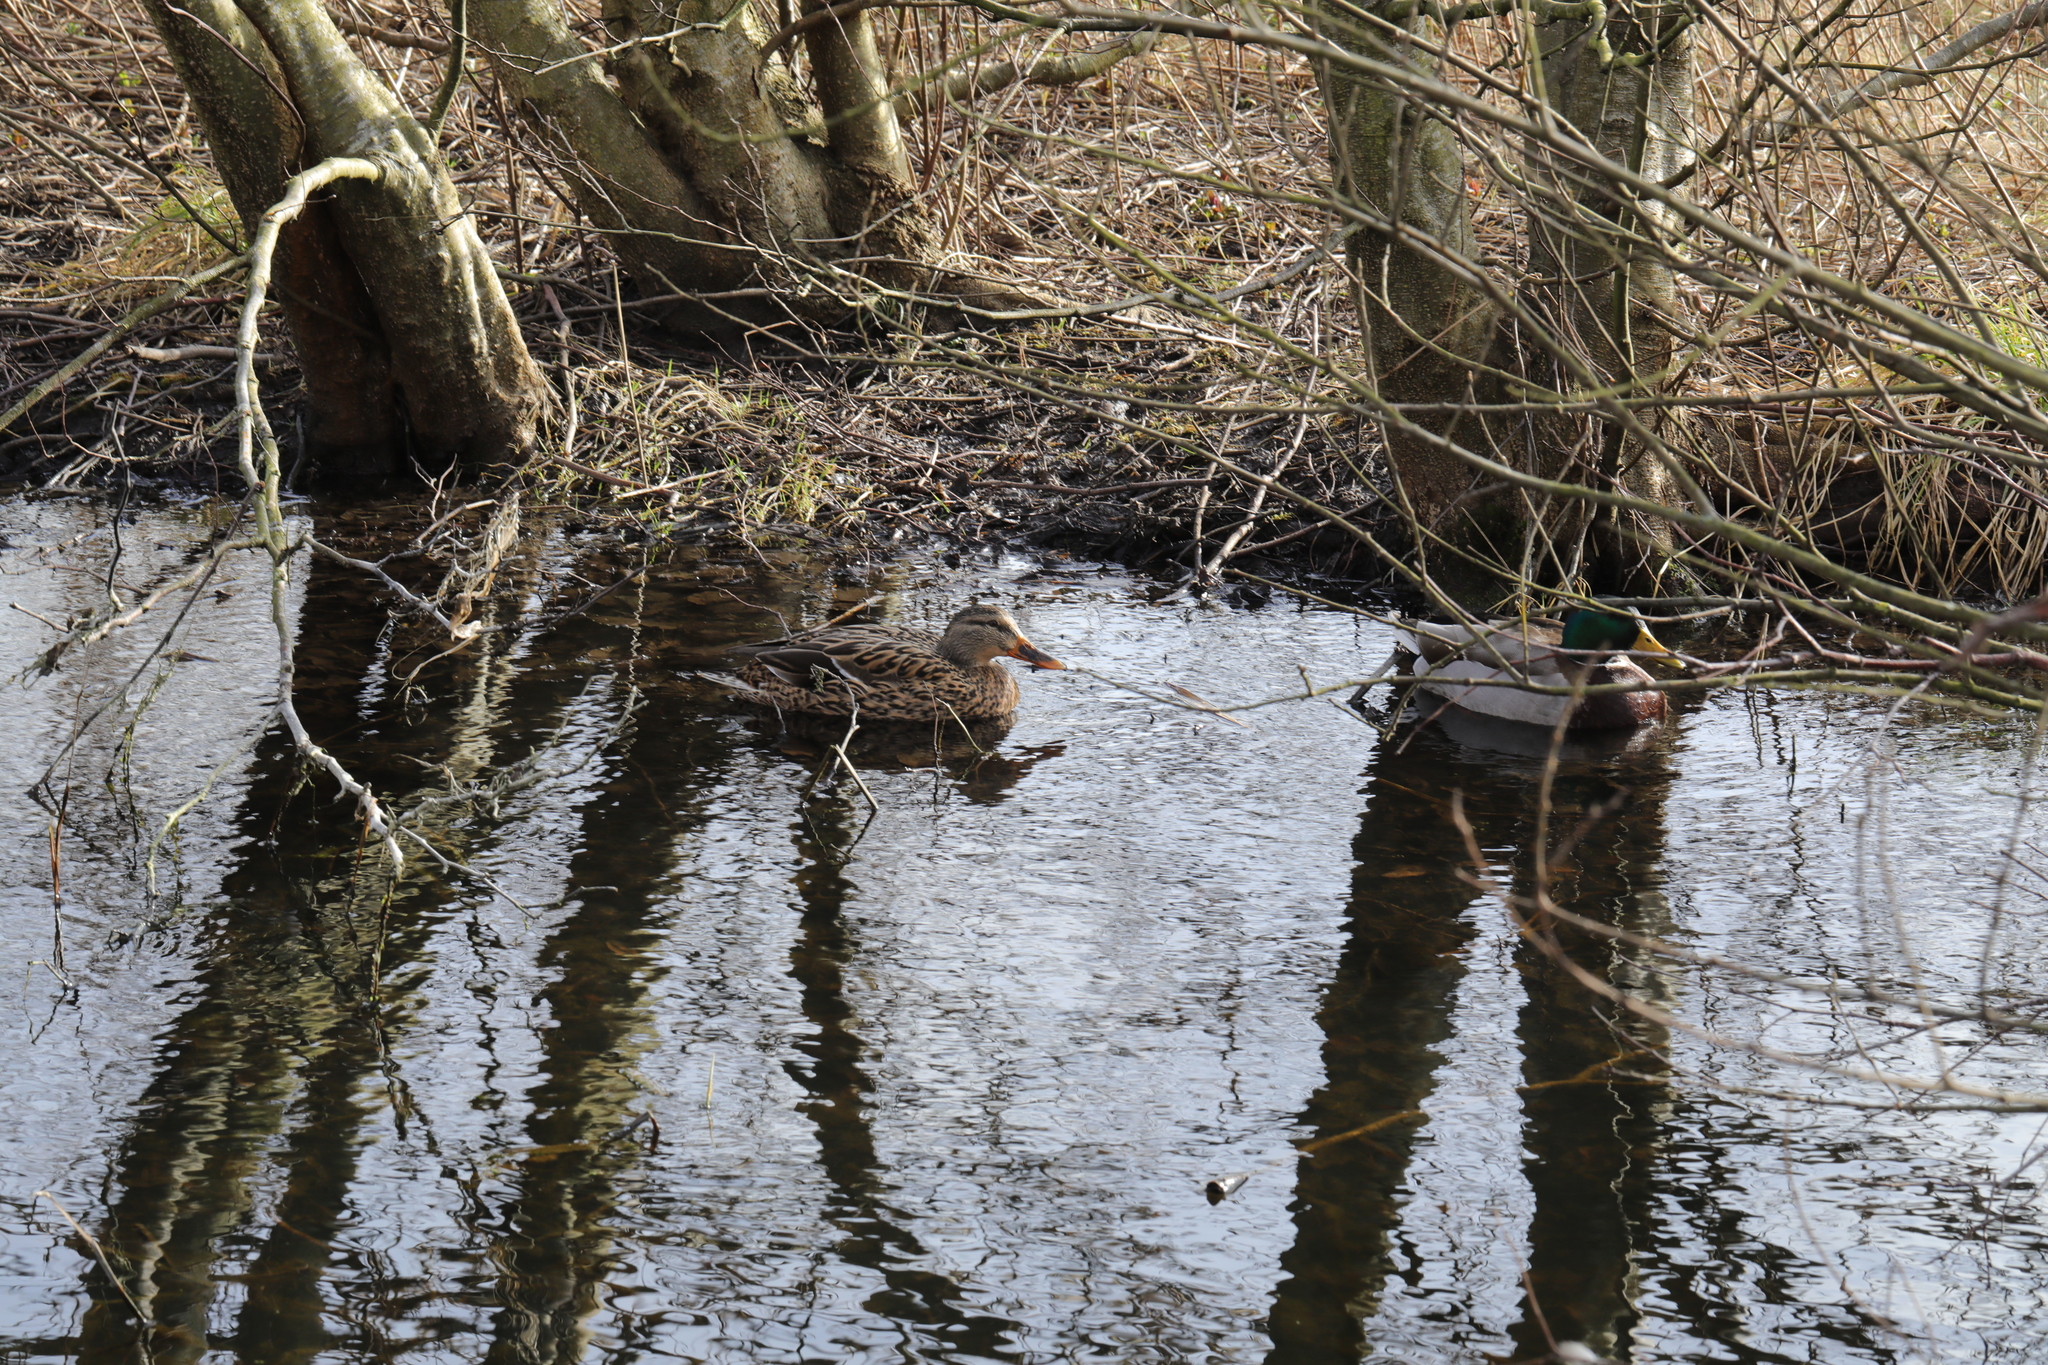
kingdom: Animalia
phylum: Chordata
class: Aves
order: Anseriformes
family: Anatidae
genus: Anas
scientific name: Anas platyrhynchos
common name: Mallard
